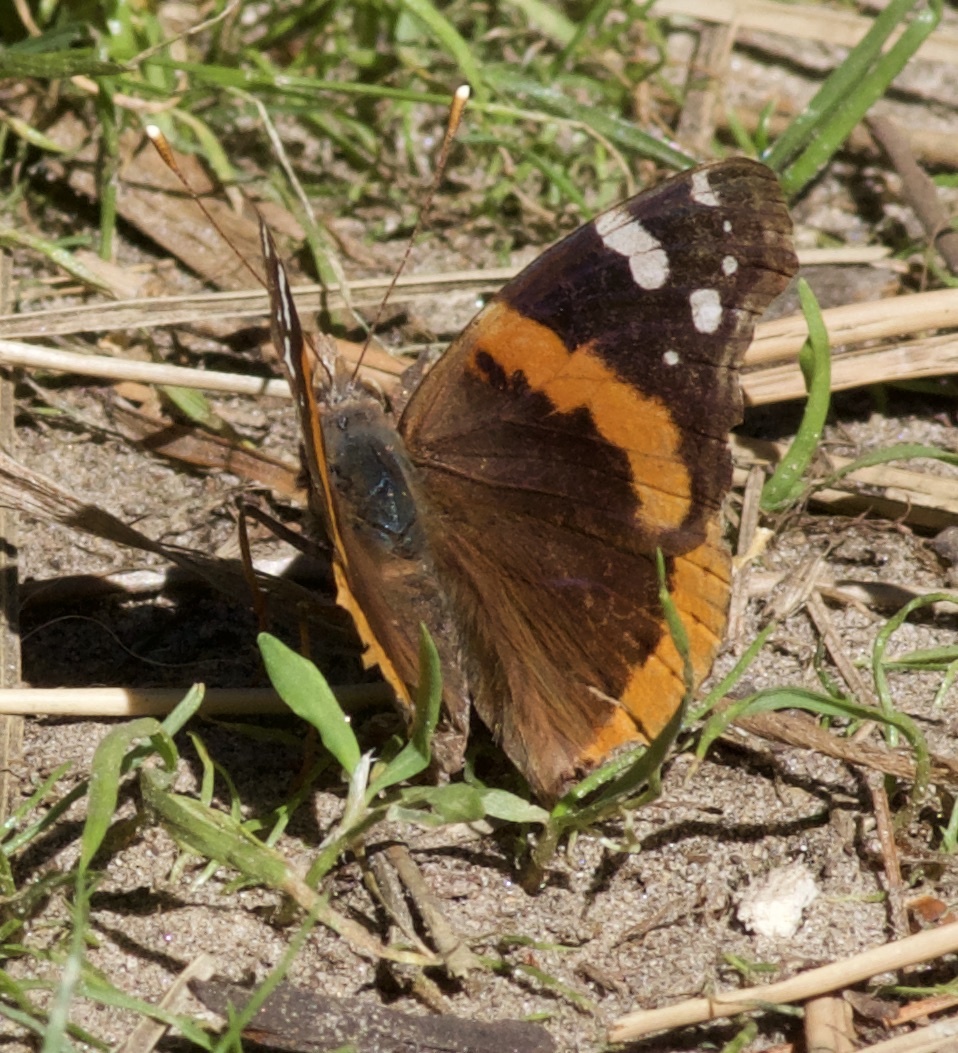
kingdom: Animalia
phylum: Arthropoda
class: Insecta
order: Lepidoptera
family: Nymphalidae
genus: Vanessa
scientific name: Vanessa atalanta
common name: Red admiral
